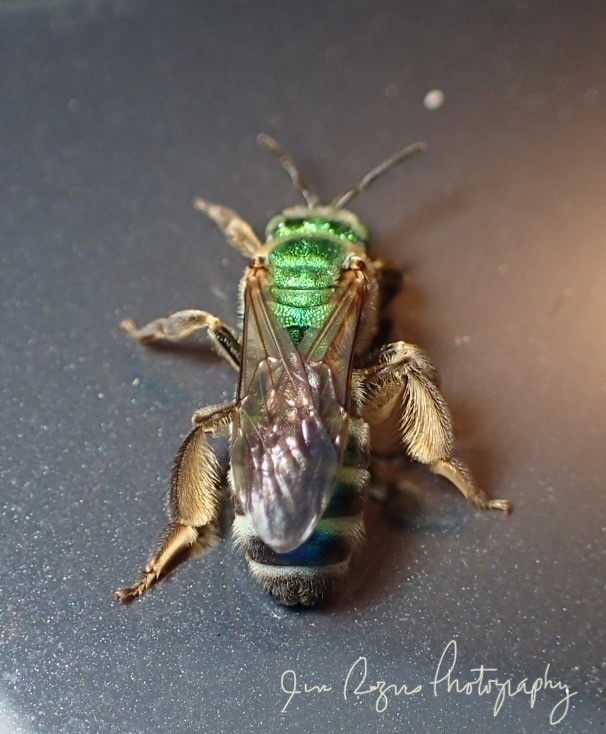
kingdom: Animalia
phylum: Arthropoda
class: Insecta
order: Hymenoptera
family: Halictidae
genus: Agapostemon
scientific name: Agapostemon splendens
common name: Brown-winged striped sweat bee
